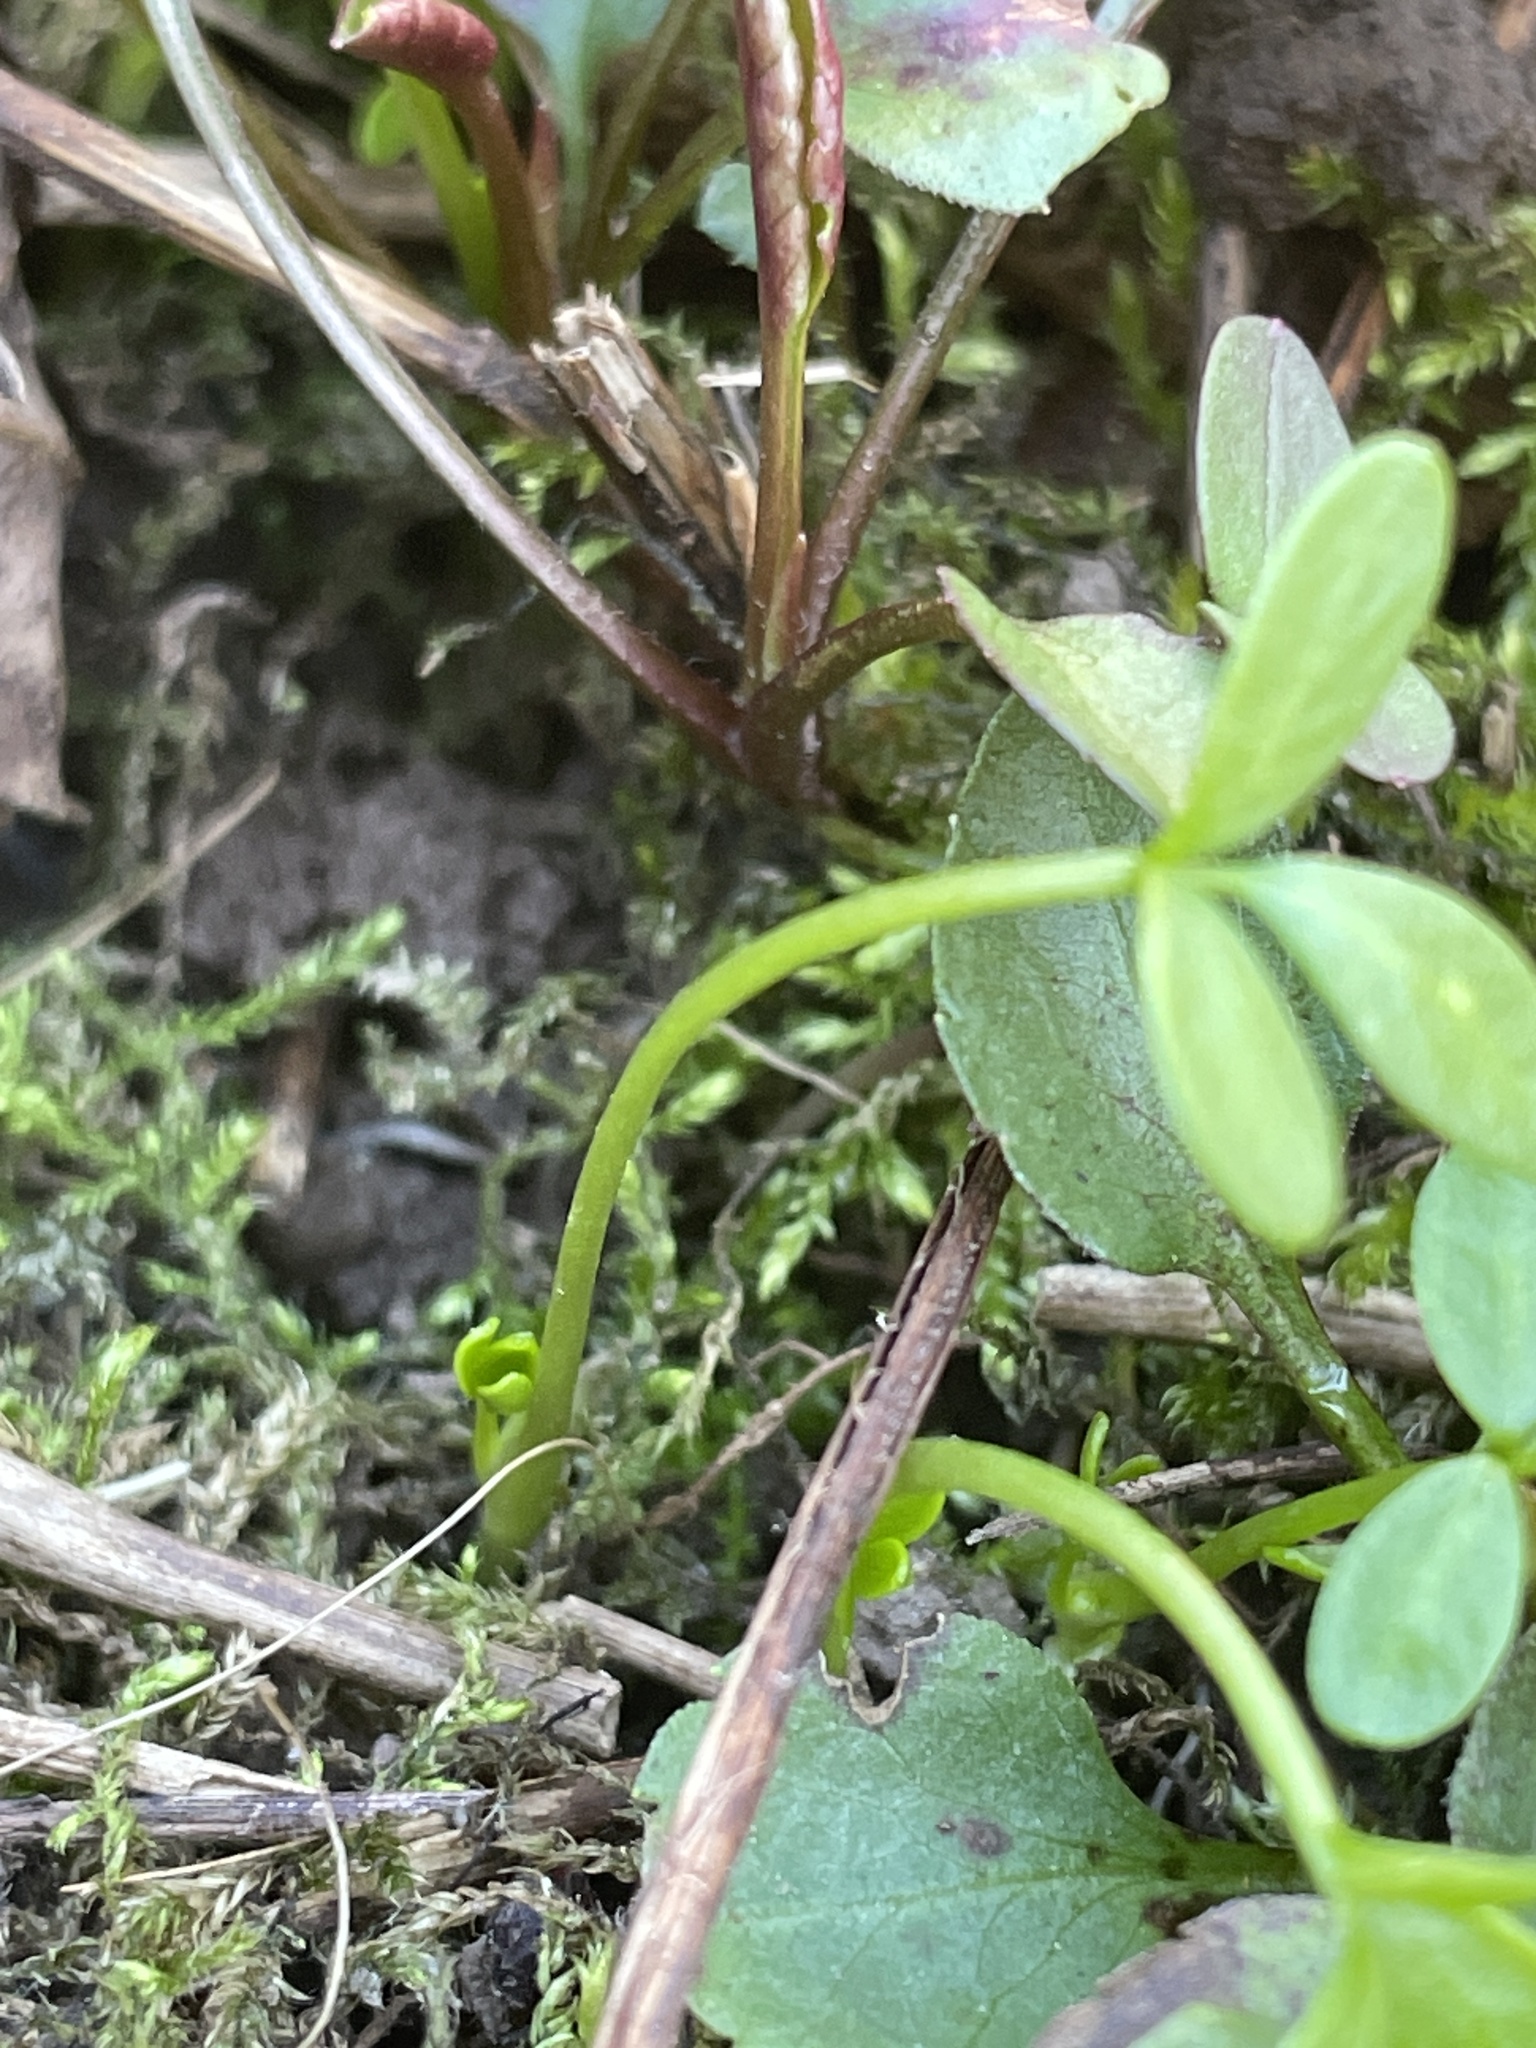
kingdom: Plantae
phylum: Tracheophyta
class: Magnoliopsida
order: Brassicales
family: Limnanthaceae
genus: Floerkea
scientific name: Floerkea proserpinacoides
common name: False mermaid
